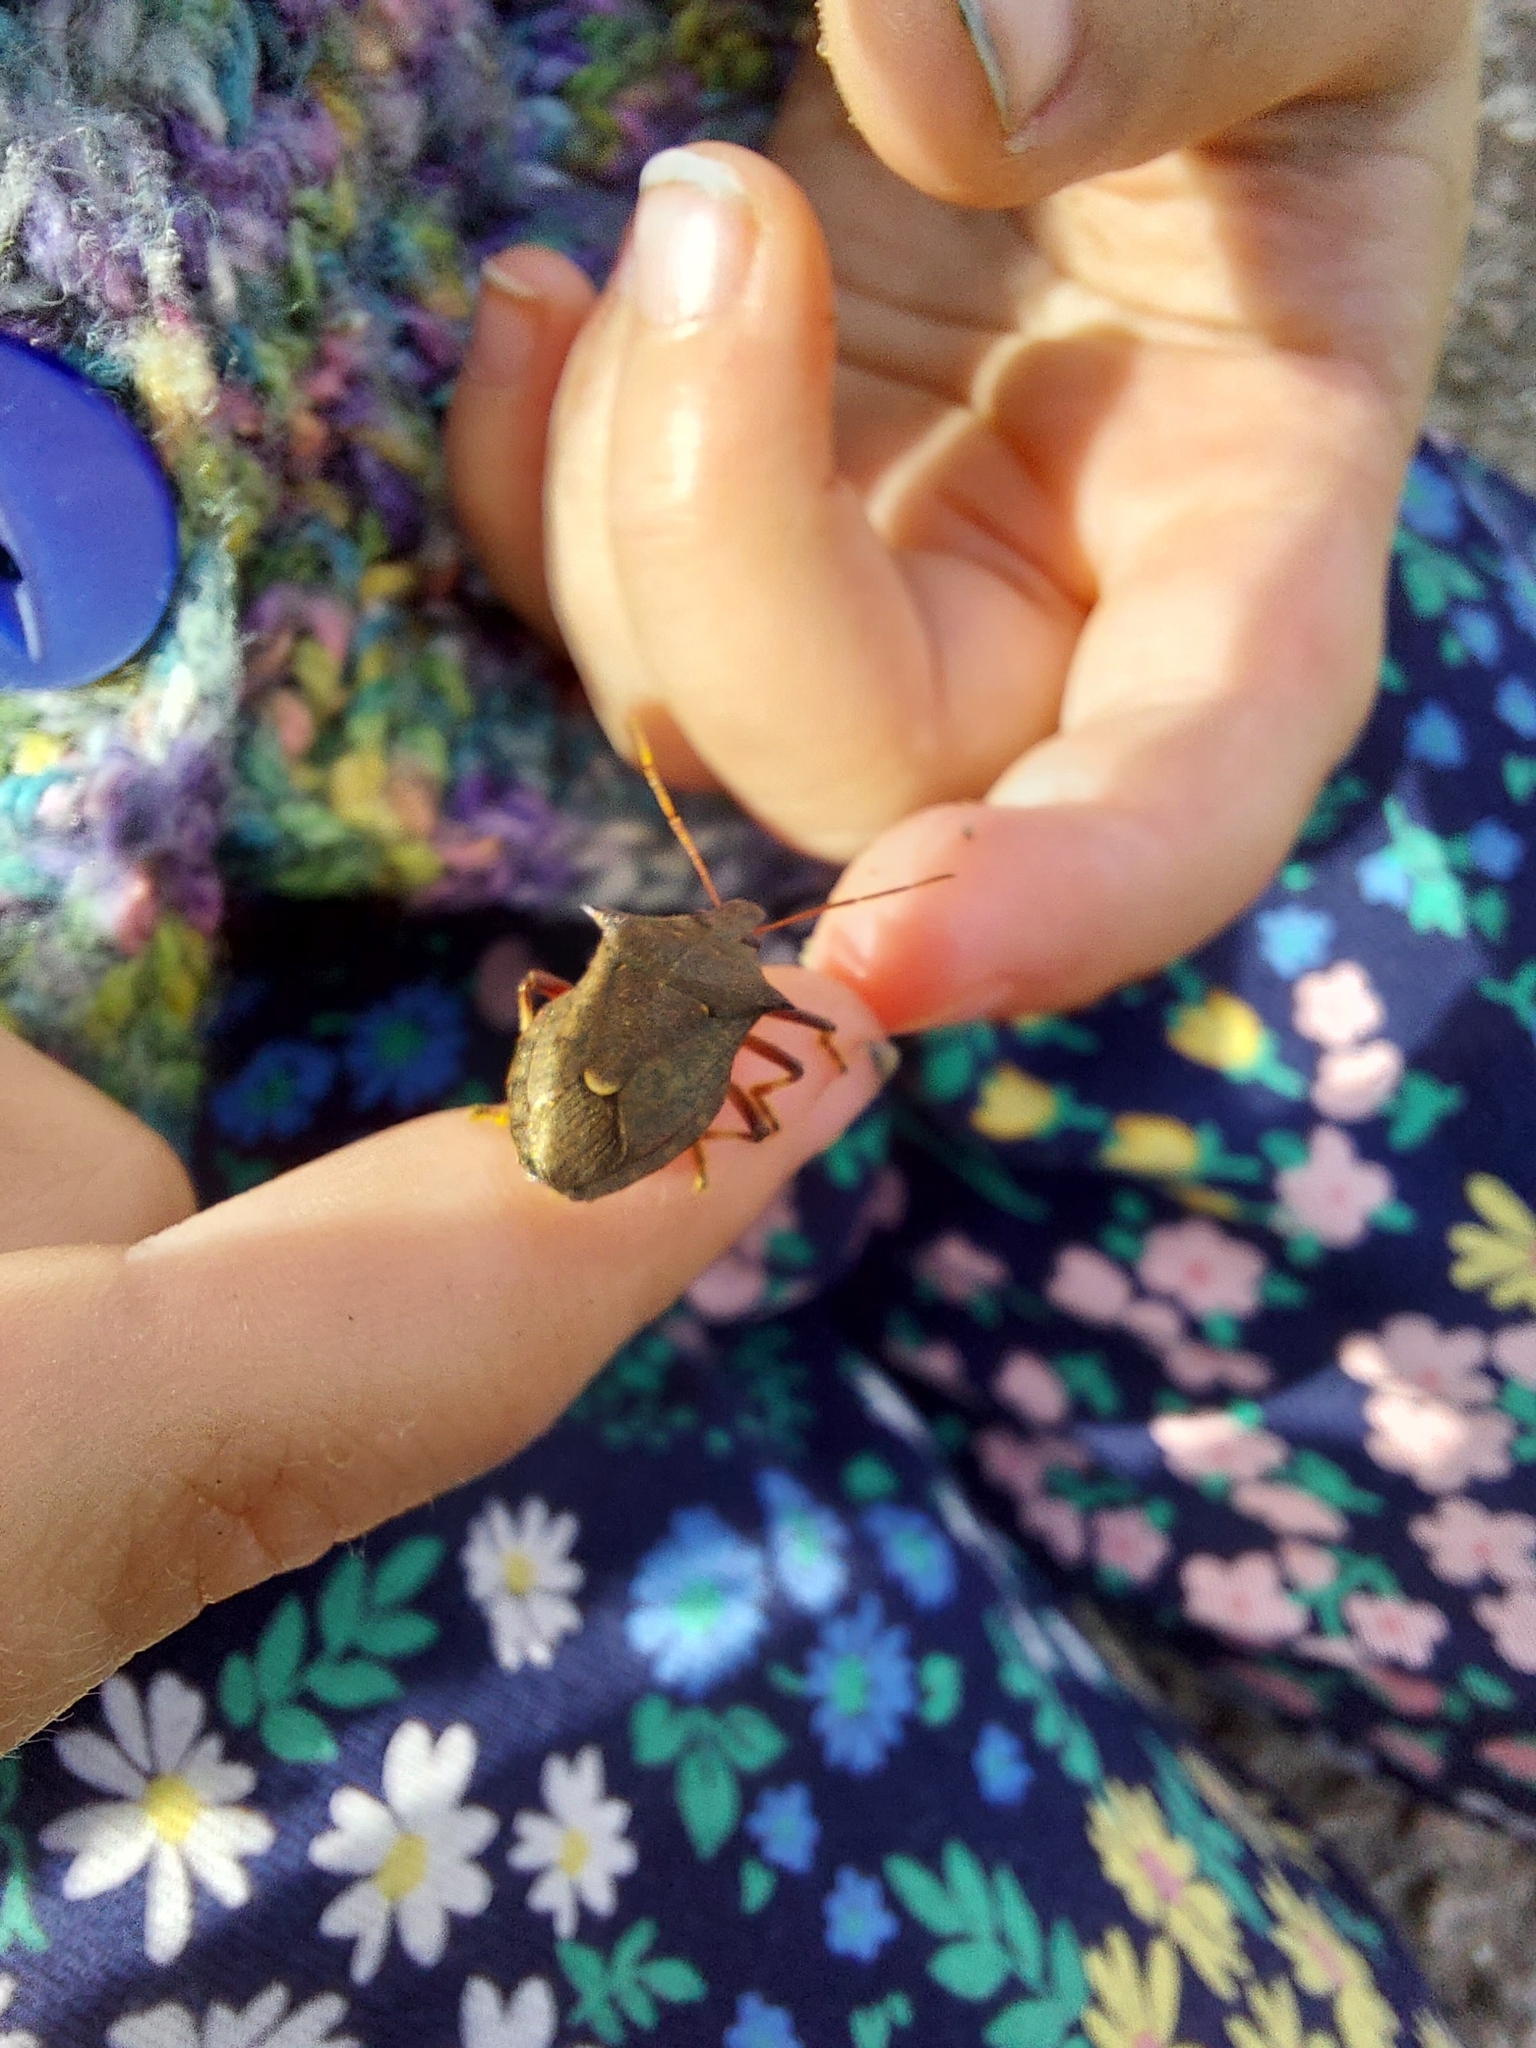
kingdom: Animalia
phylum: Arthropoda
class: Insecta
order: Hemiptera
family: Pentatomidae
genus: Picromerus
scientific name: Picromerus bidens
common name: Spiked shieldbug
